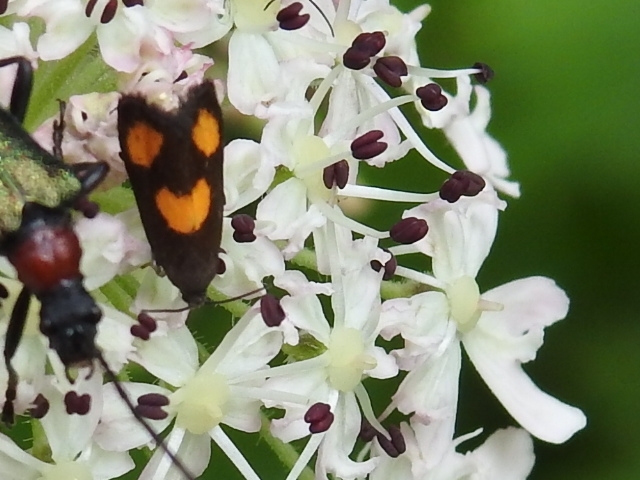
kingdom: Animalia
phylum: Arthropoda
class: Insecta
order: Lepidoptera
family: Tortricidae
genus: Pammene
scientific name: Pammene aurana
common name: Orange-spot piercer
